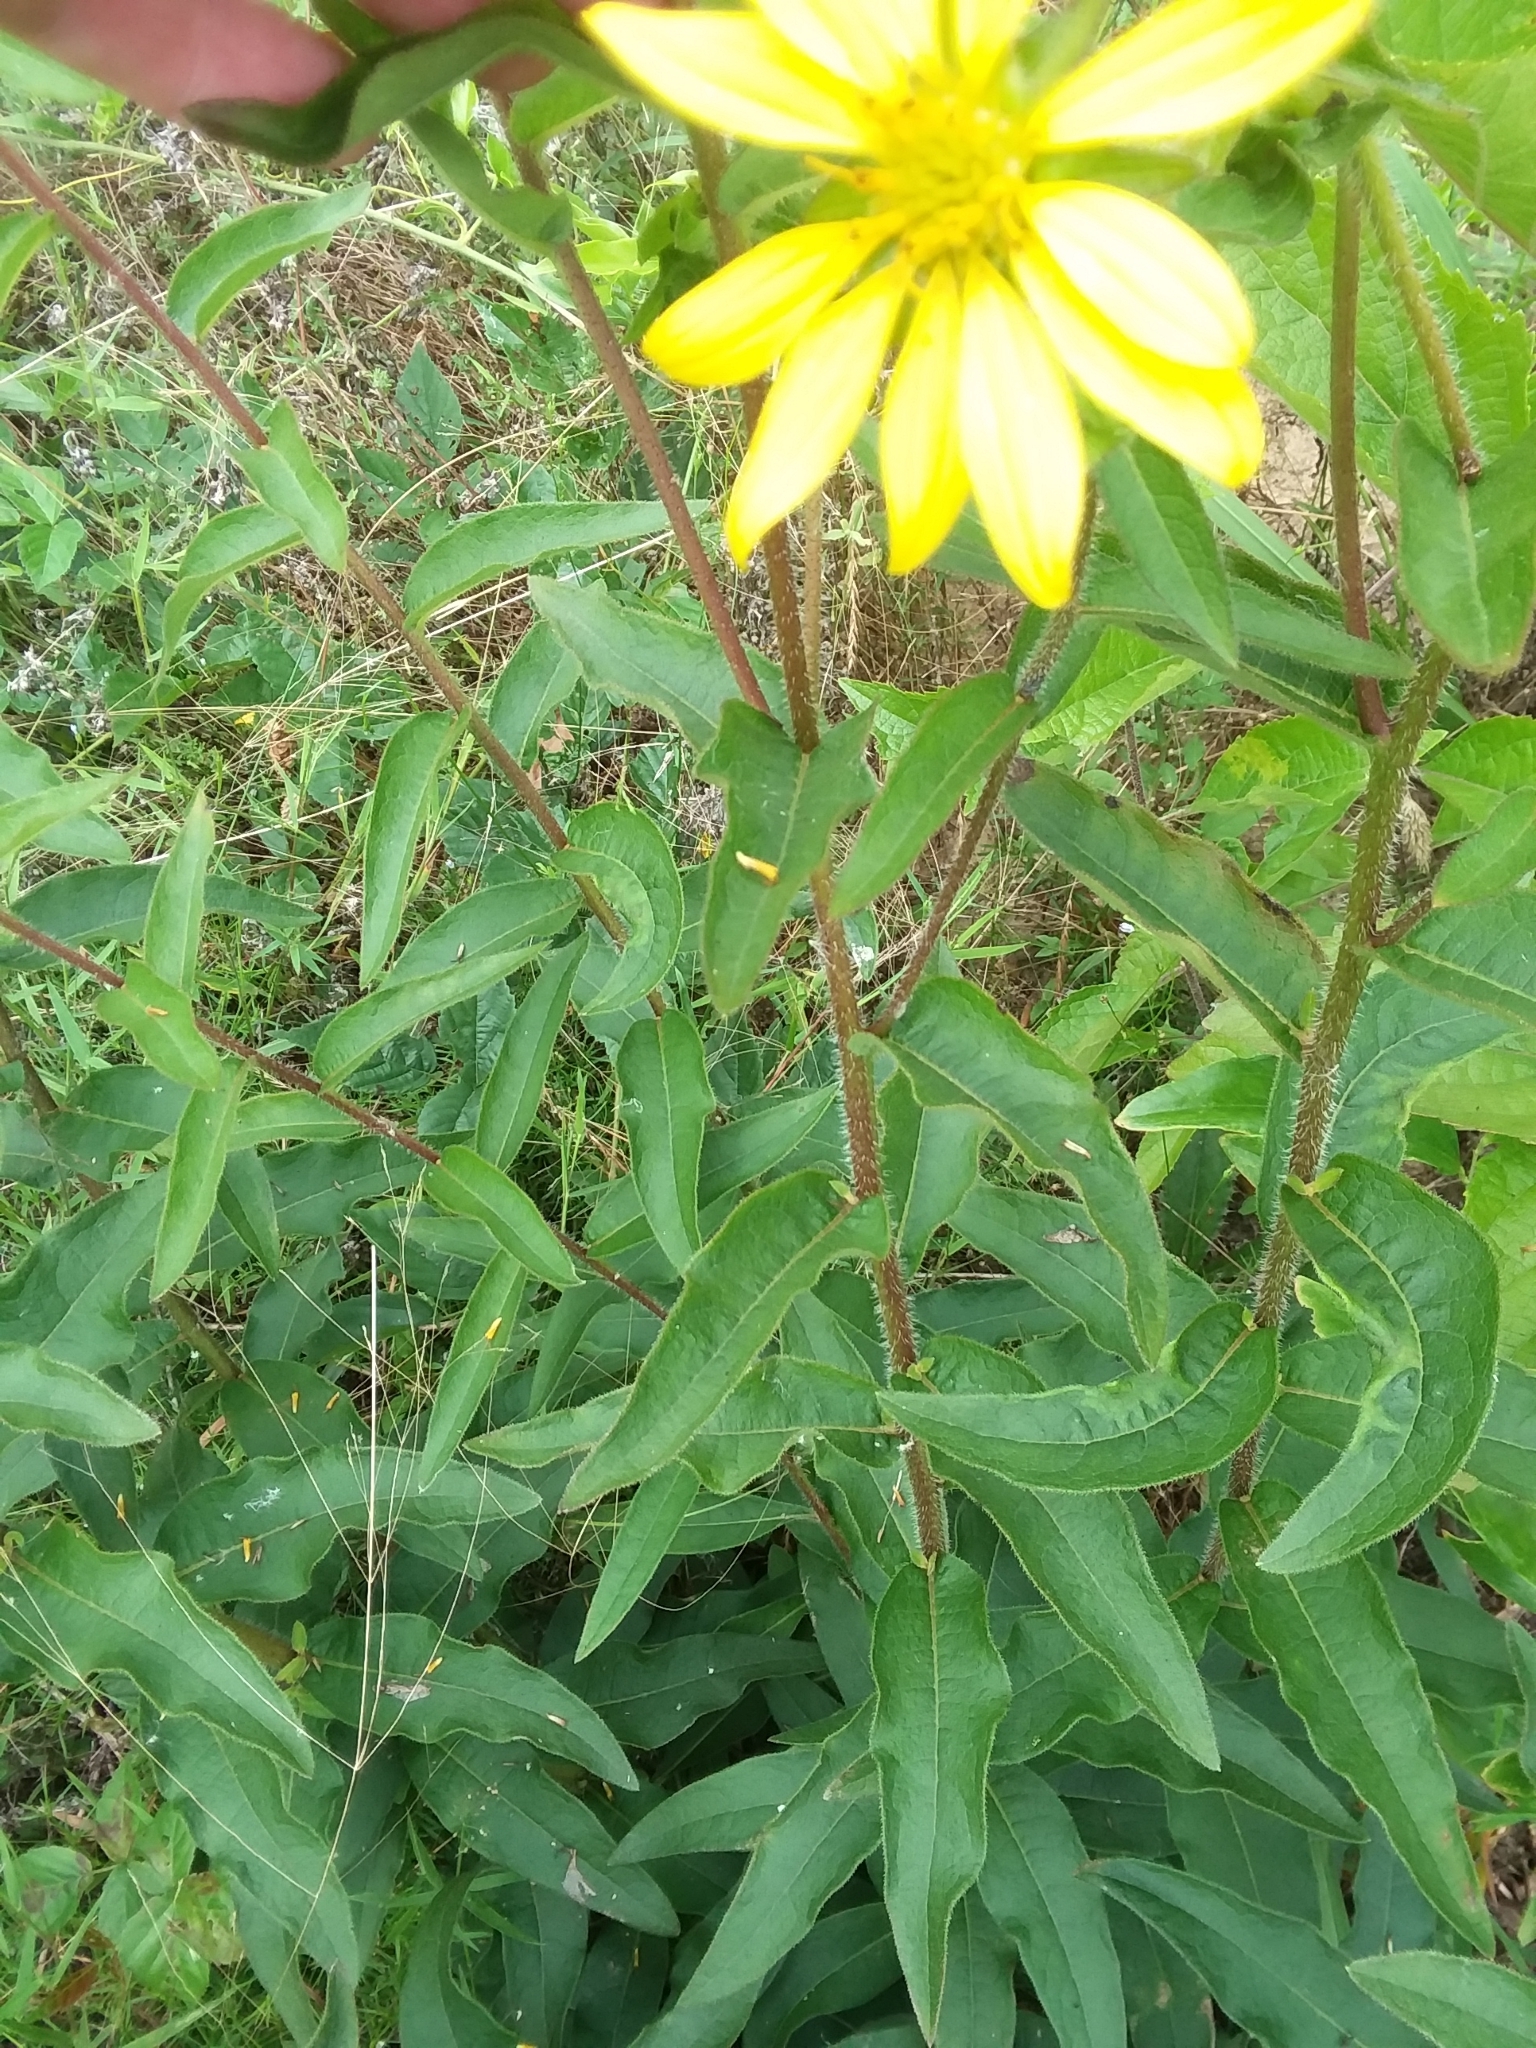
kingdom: Plantae
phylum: Tracheophyta
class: Magnoliopsida
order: Asterales
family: Asteraceae
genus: Silphium
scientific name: Silphium asperrimum
